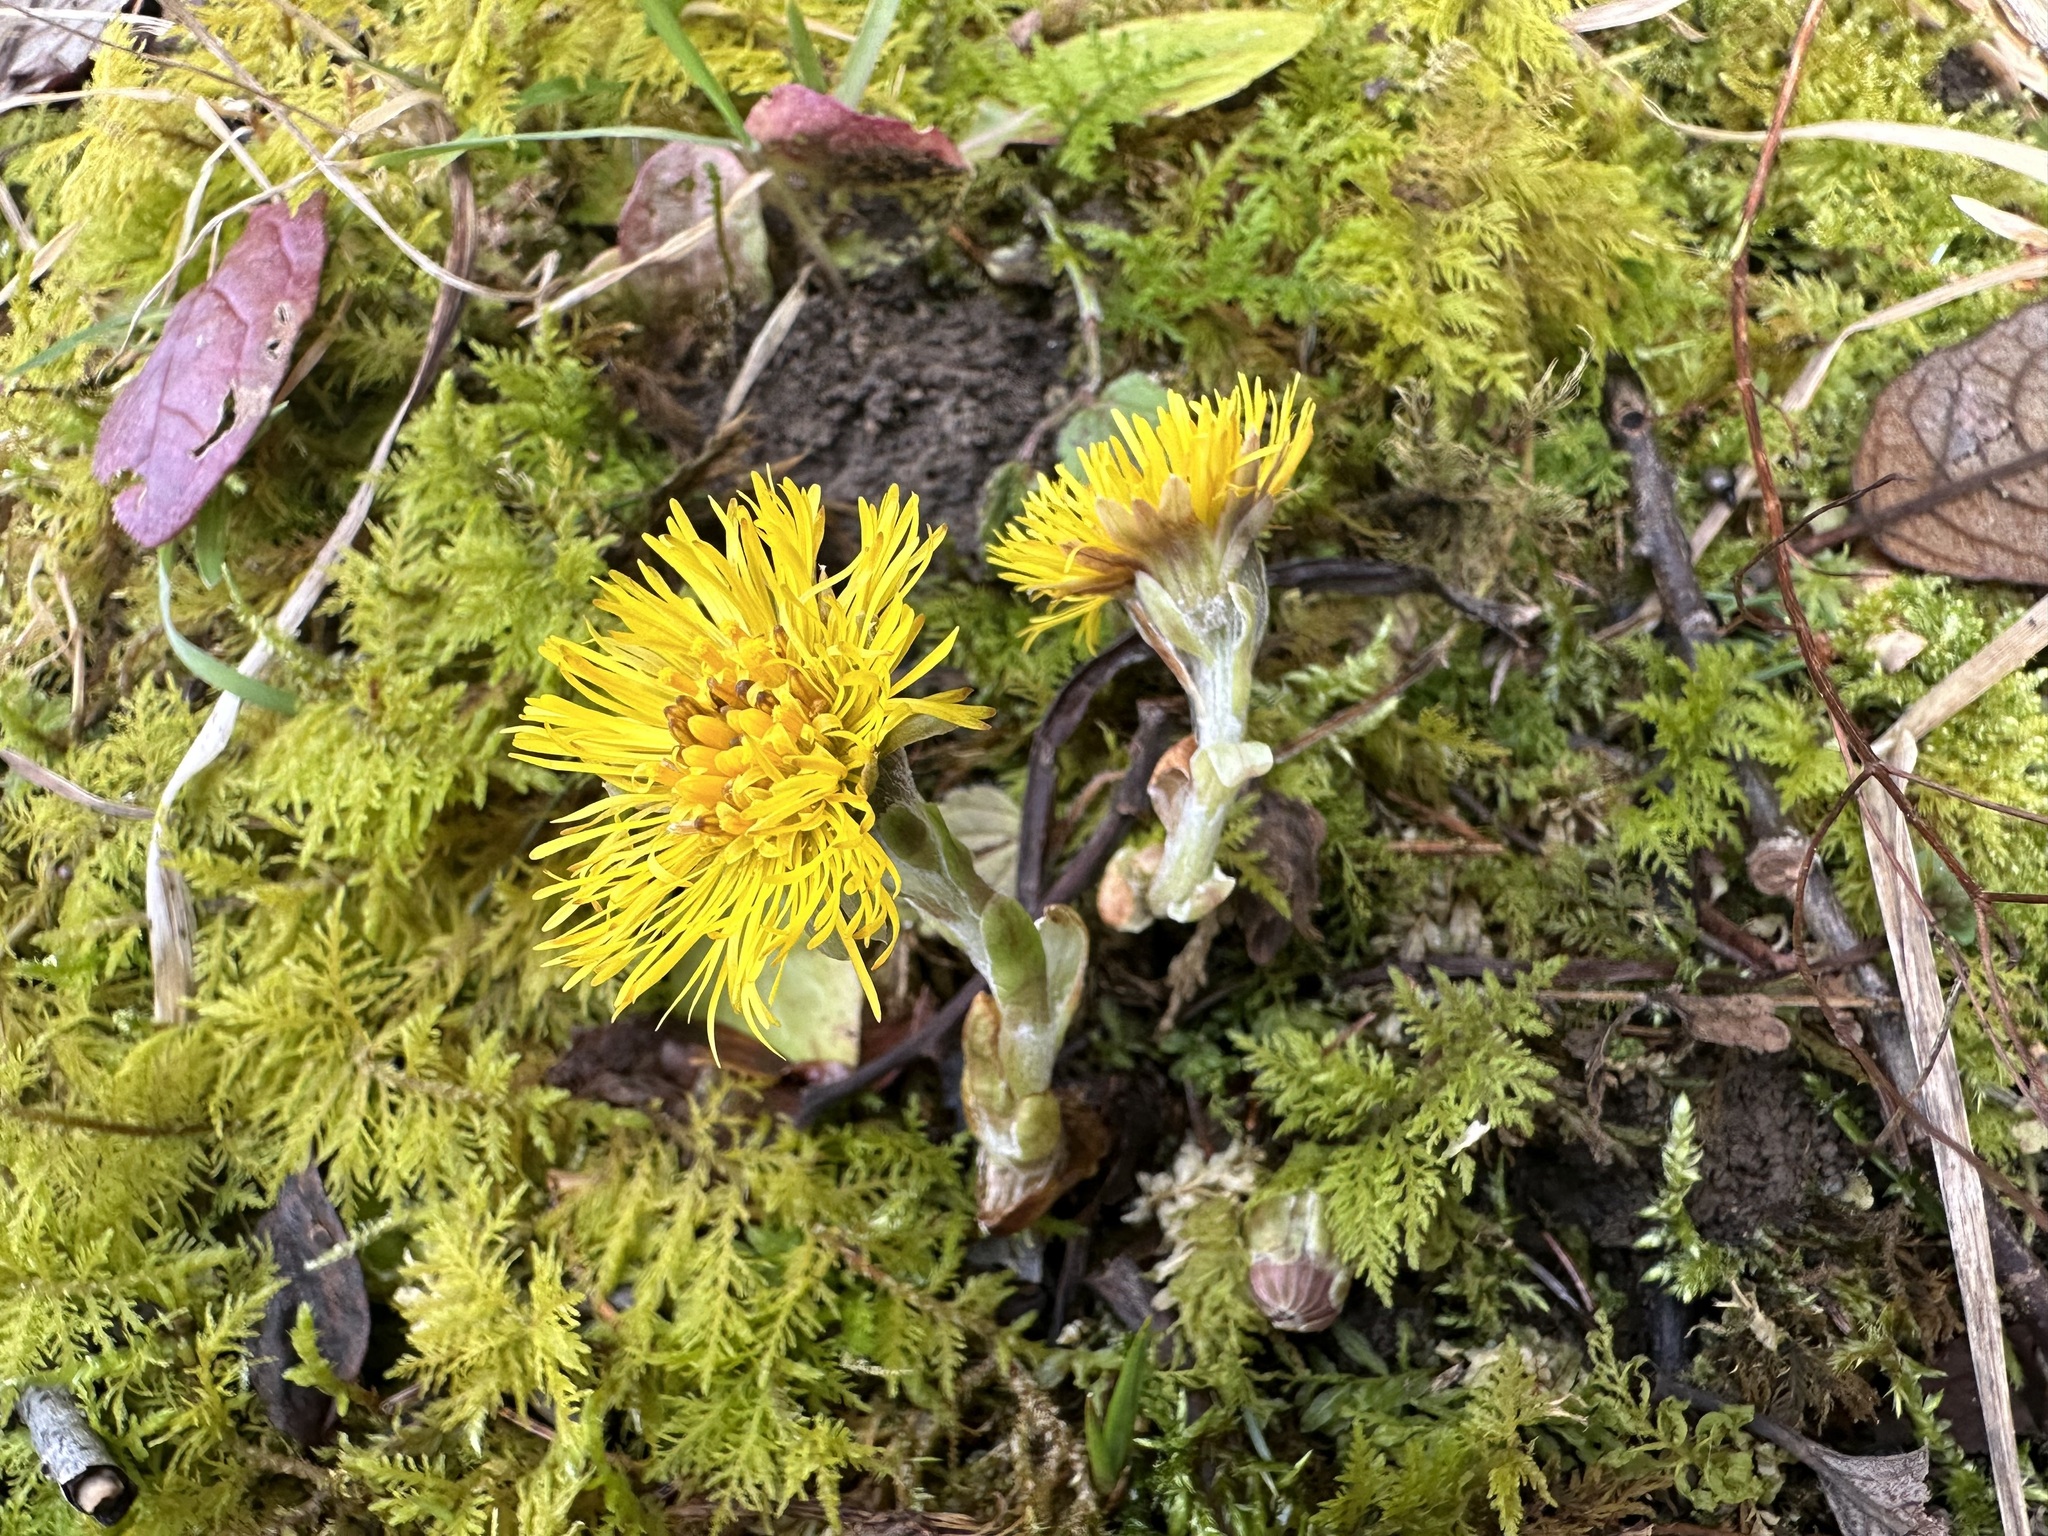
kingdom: Plantae
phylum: Tracheophyta
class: Magnoliopsida
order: Asterales
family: Asteraceae
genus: Tussilago
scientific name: Tussilago farfara
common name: Coltsfoot
